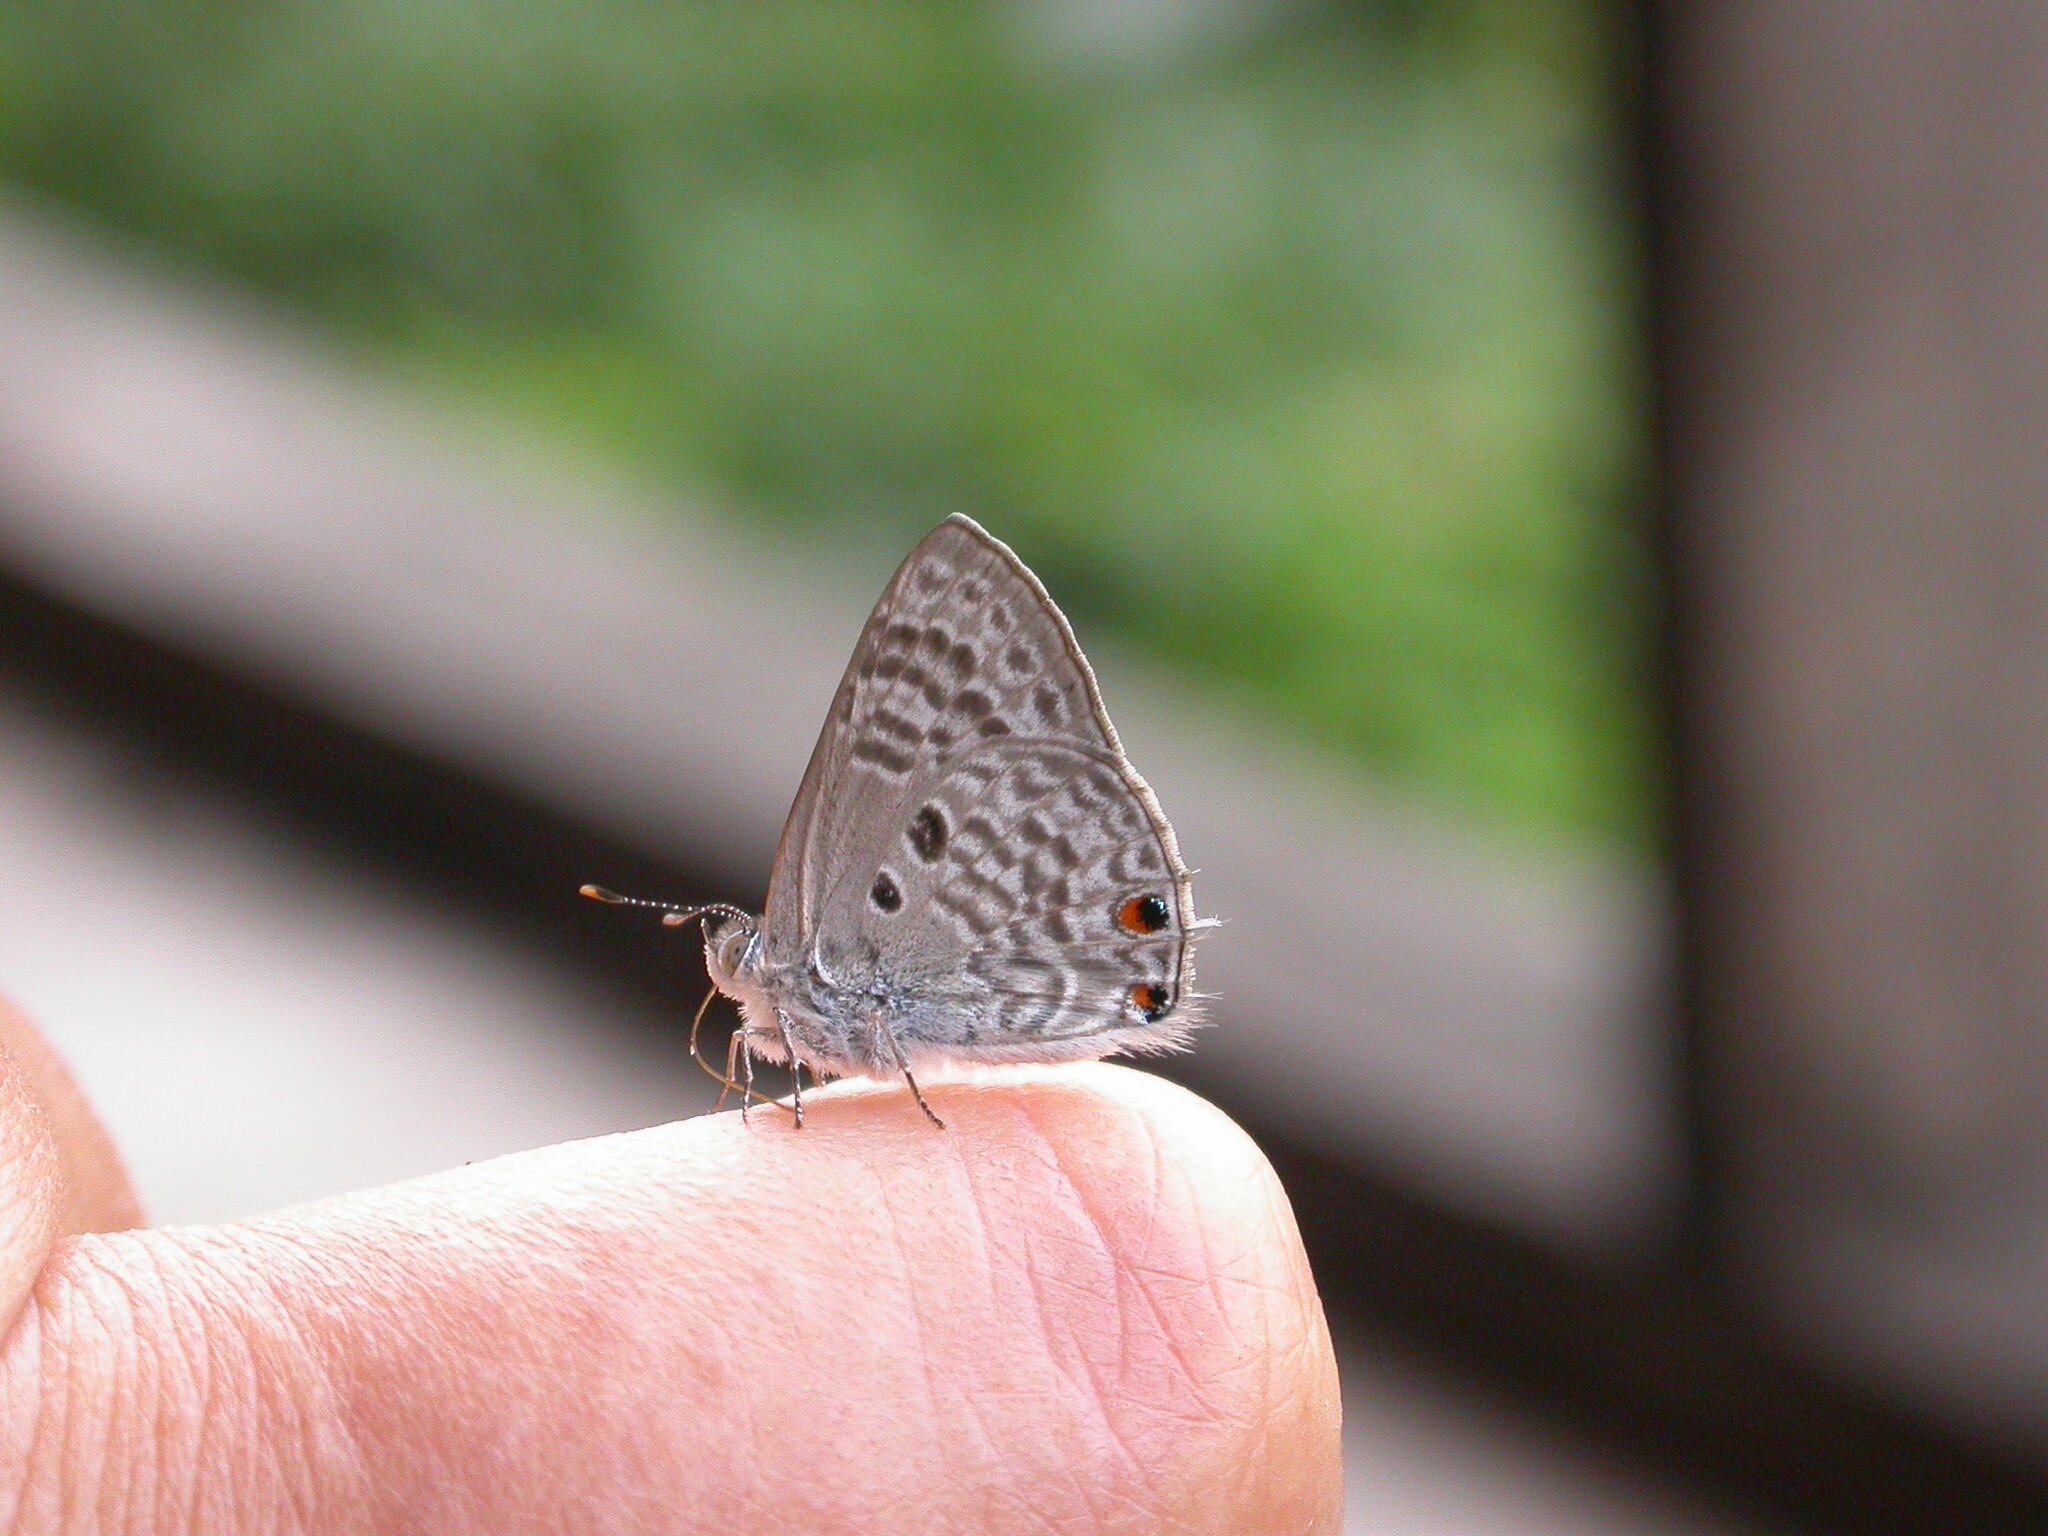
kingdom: Animalia
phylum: Arthropoda
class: Insecta
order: Lepidoptera
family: Lycaenidae
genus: Anthene
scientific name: Anthene princeps
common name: Lebombo hairtail
